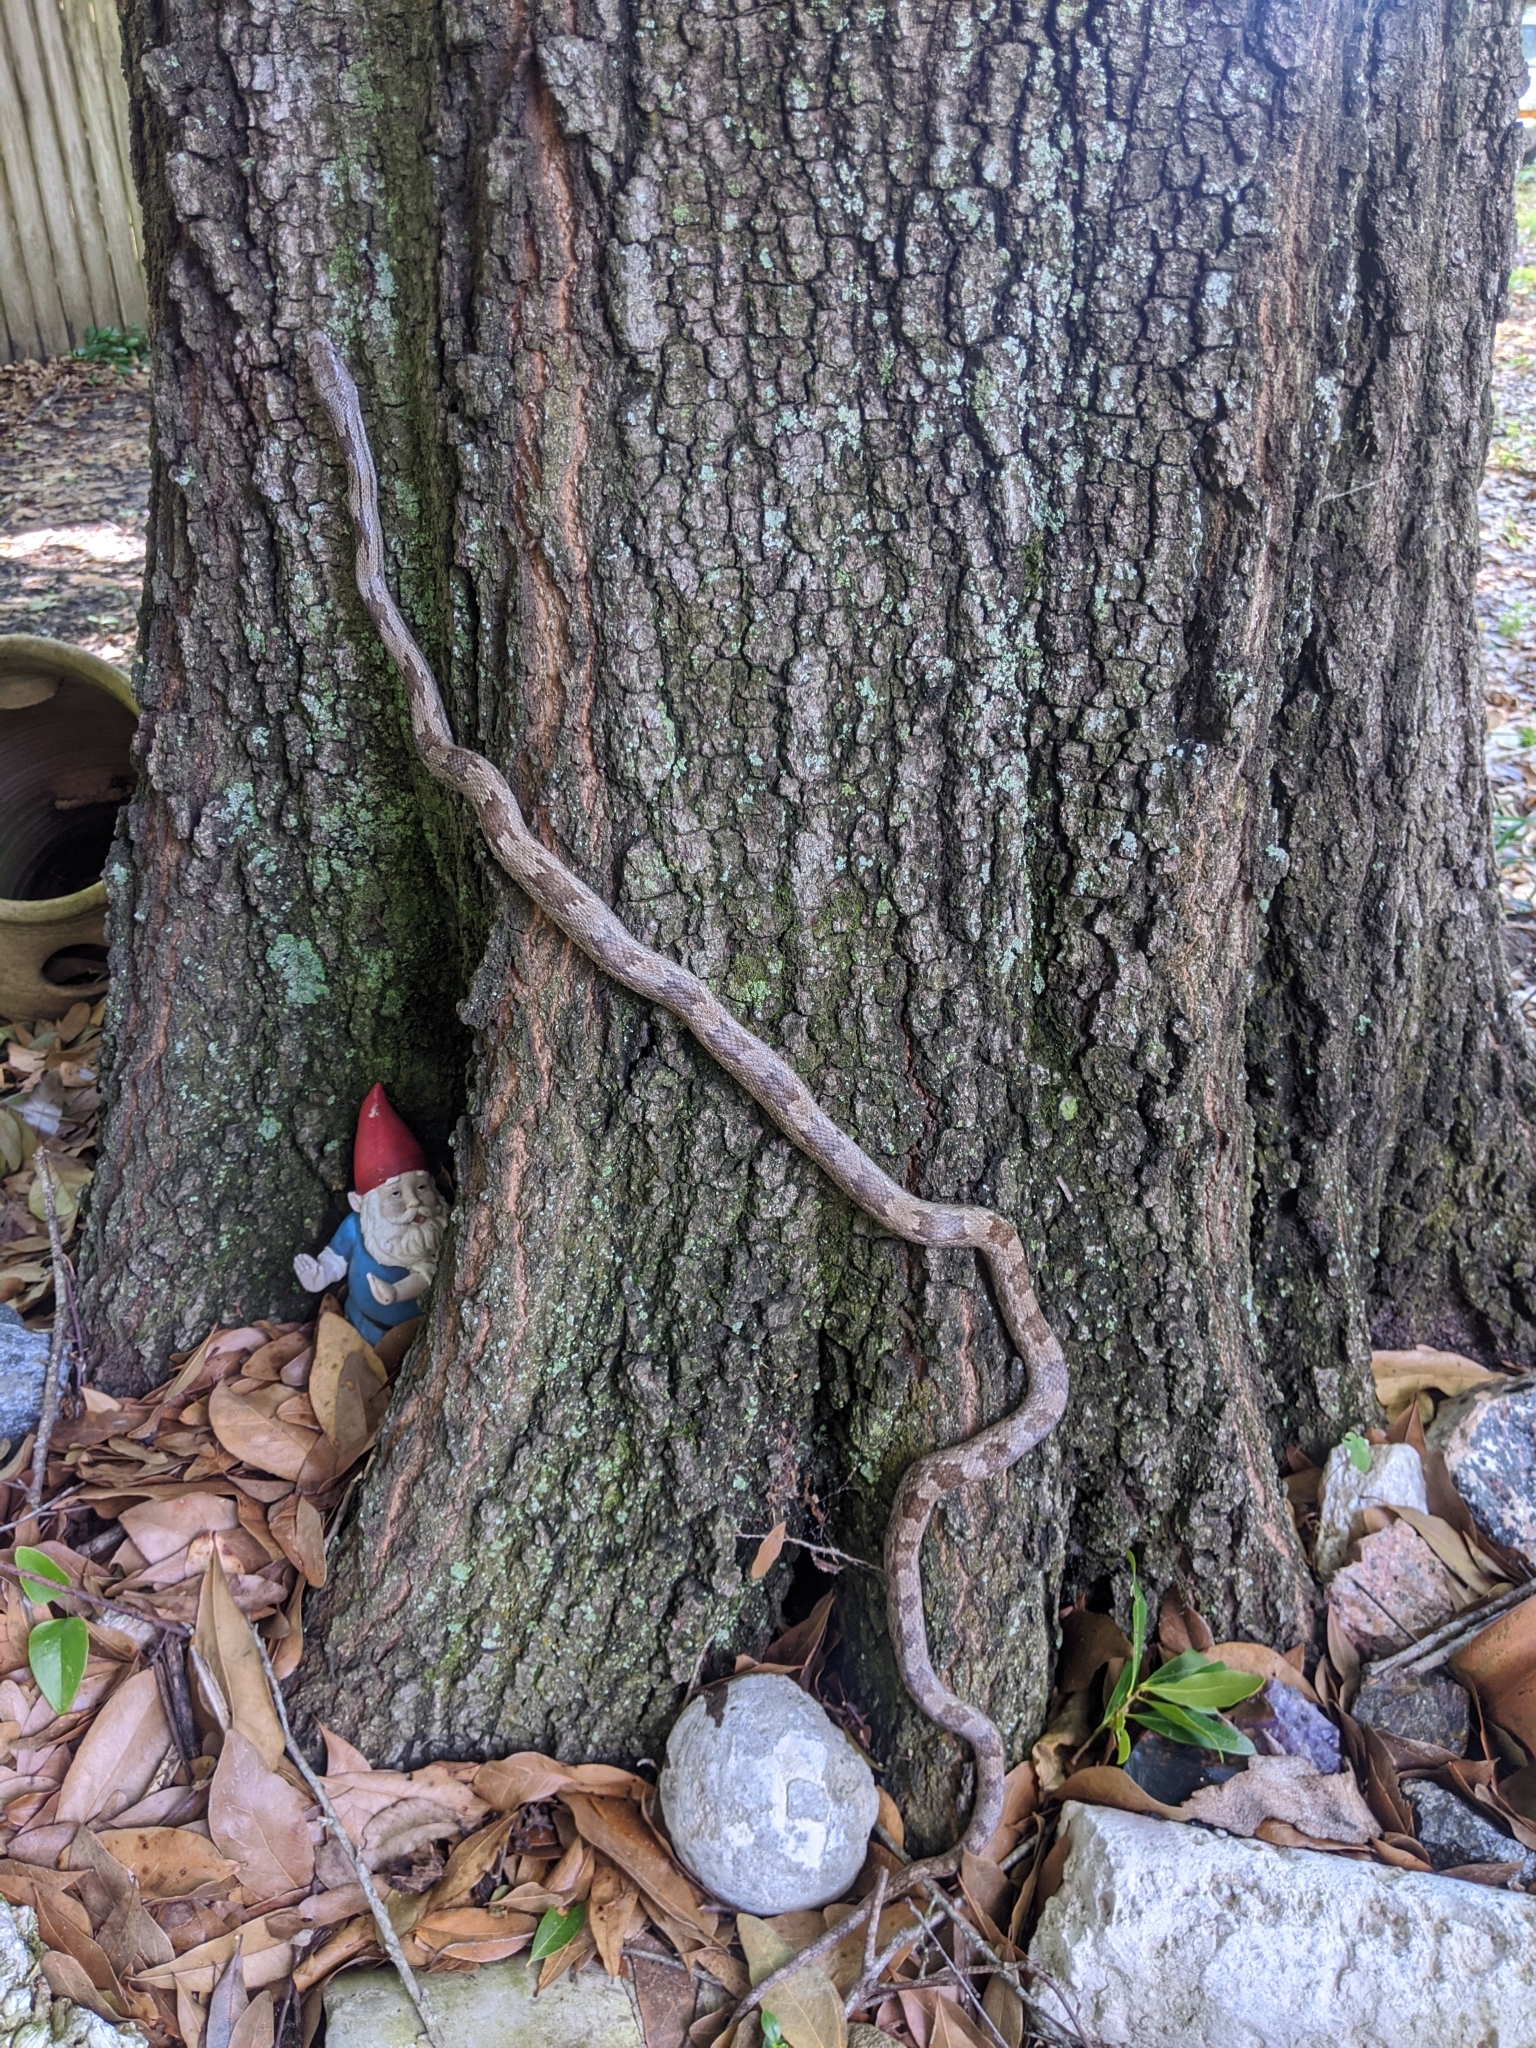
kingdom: Animalia
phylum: Chordata
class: Squamata
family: Colubridae
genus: Pantherophis
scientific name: Pantherophis spiloides
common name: Gray rat snake
